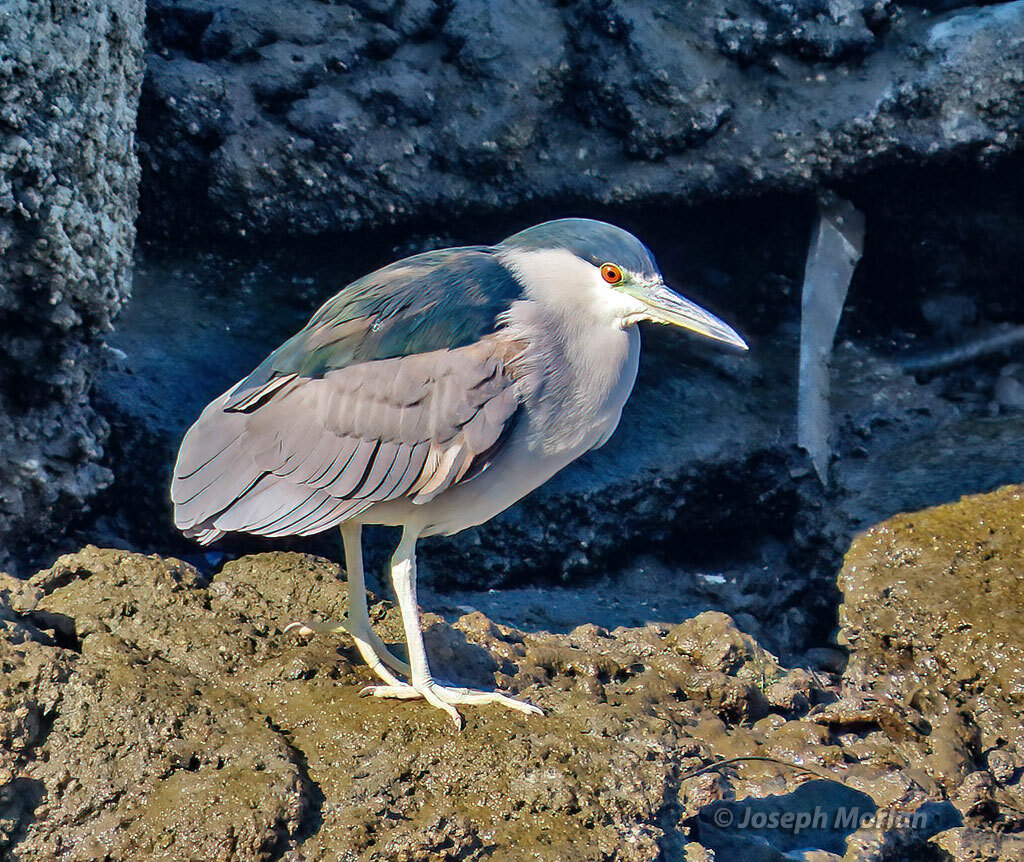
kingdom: Animalia
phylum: Chordata
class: Aves
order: Pelecaniformes
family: Ardeidae
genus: Nycticorax
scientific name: Nycticorax nycticorax
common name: Black-crowned night heron
